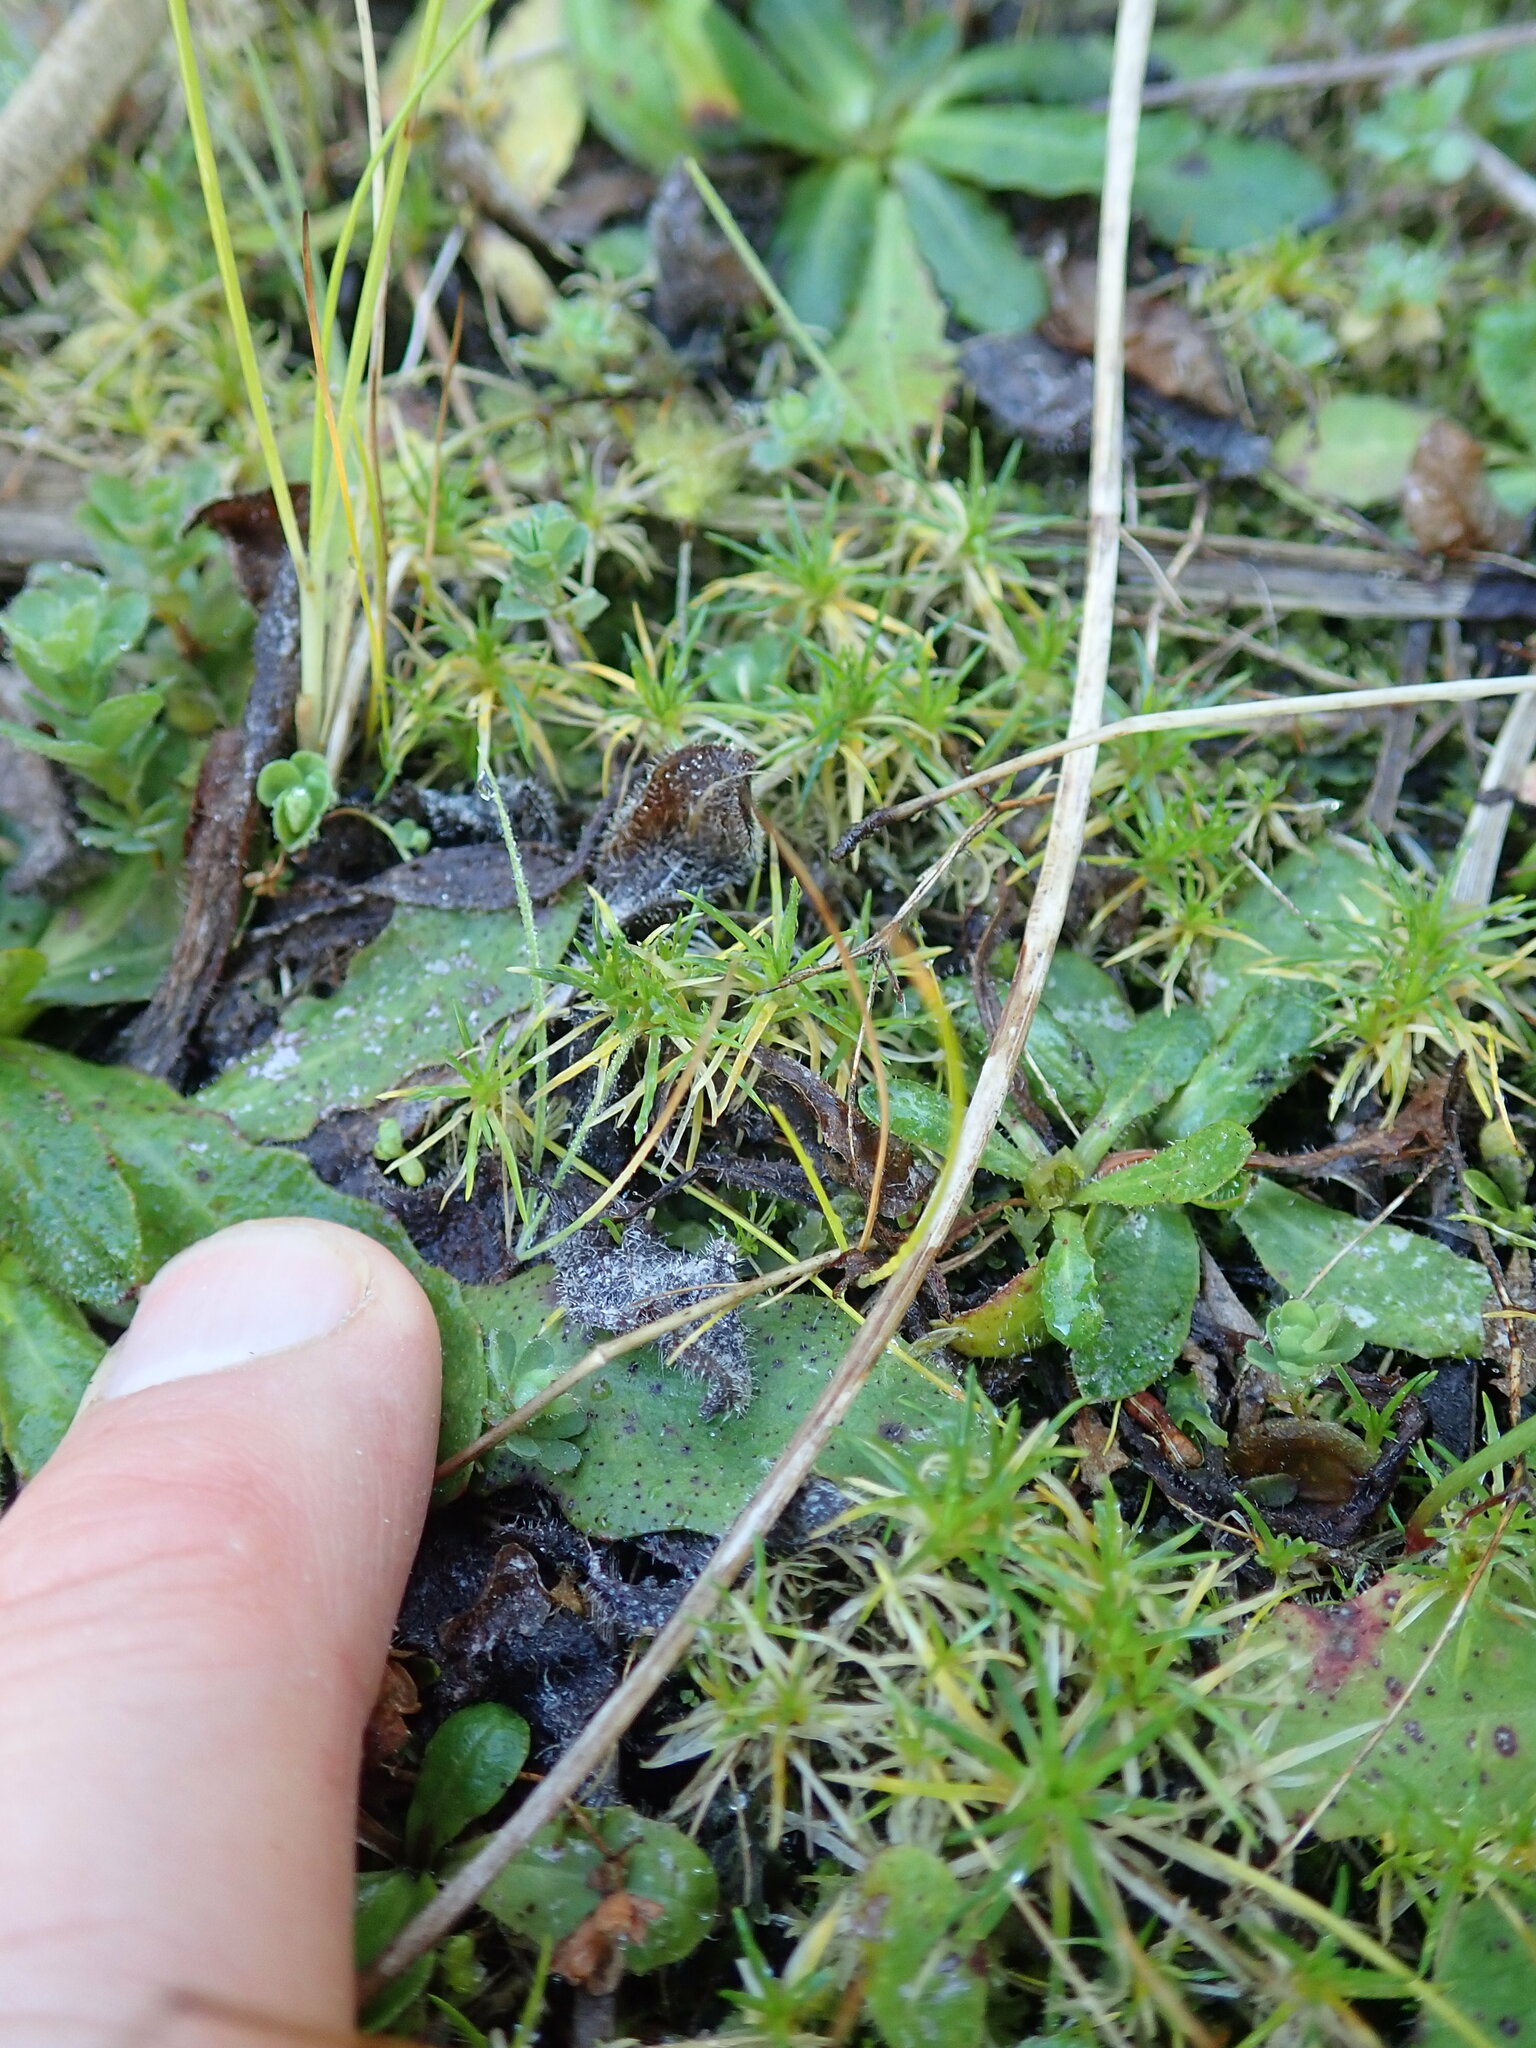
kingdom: Plantae
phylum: Tracheophyta
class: Magnoliopsida
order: Caryophyllales
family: Caryophyllaceae
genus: Sagina
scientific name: Sagina procumbens
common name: Procumbent pearlwort
